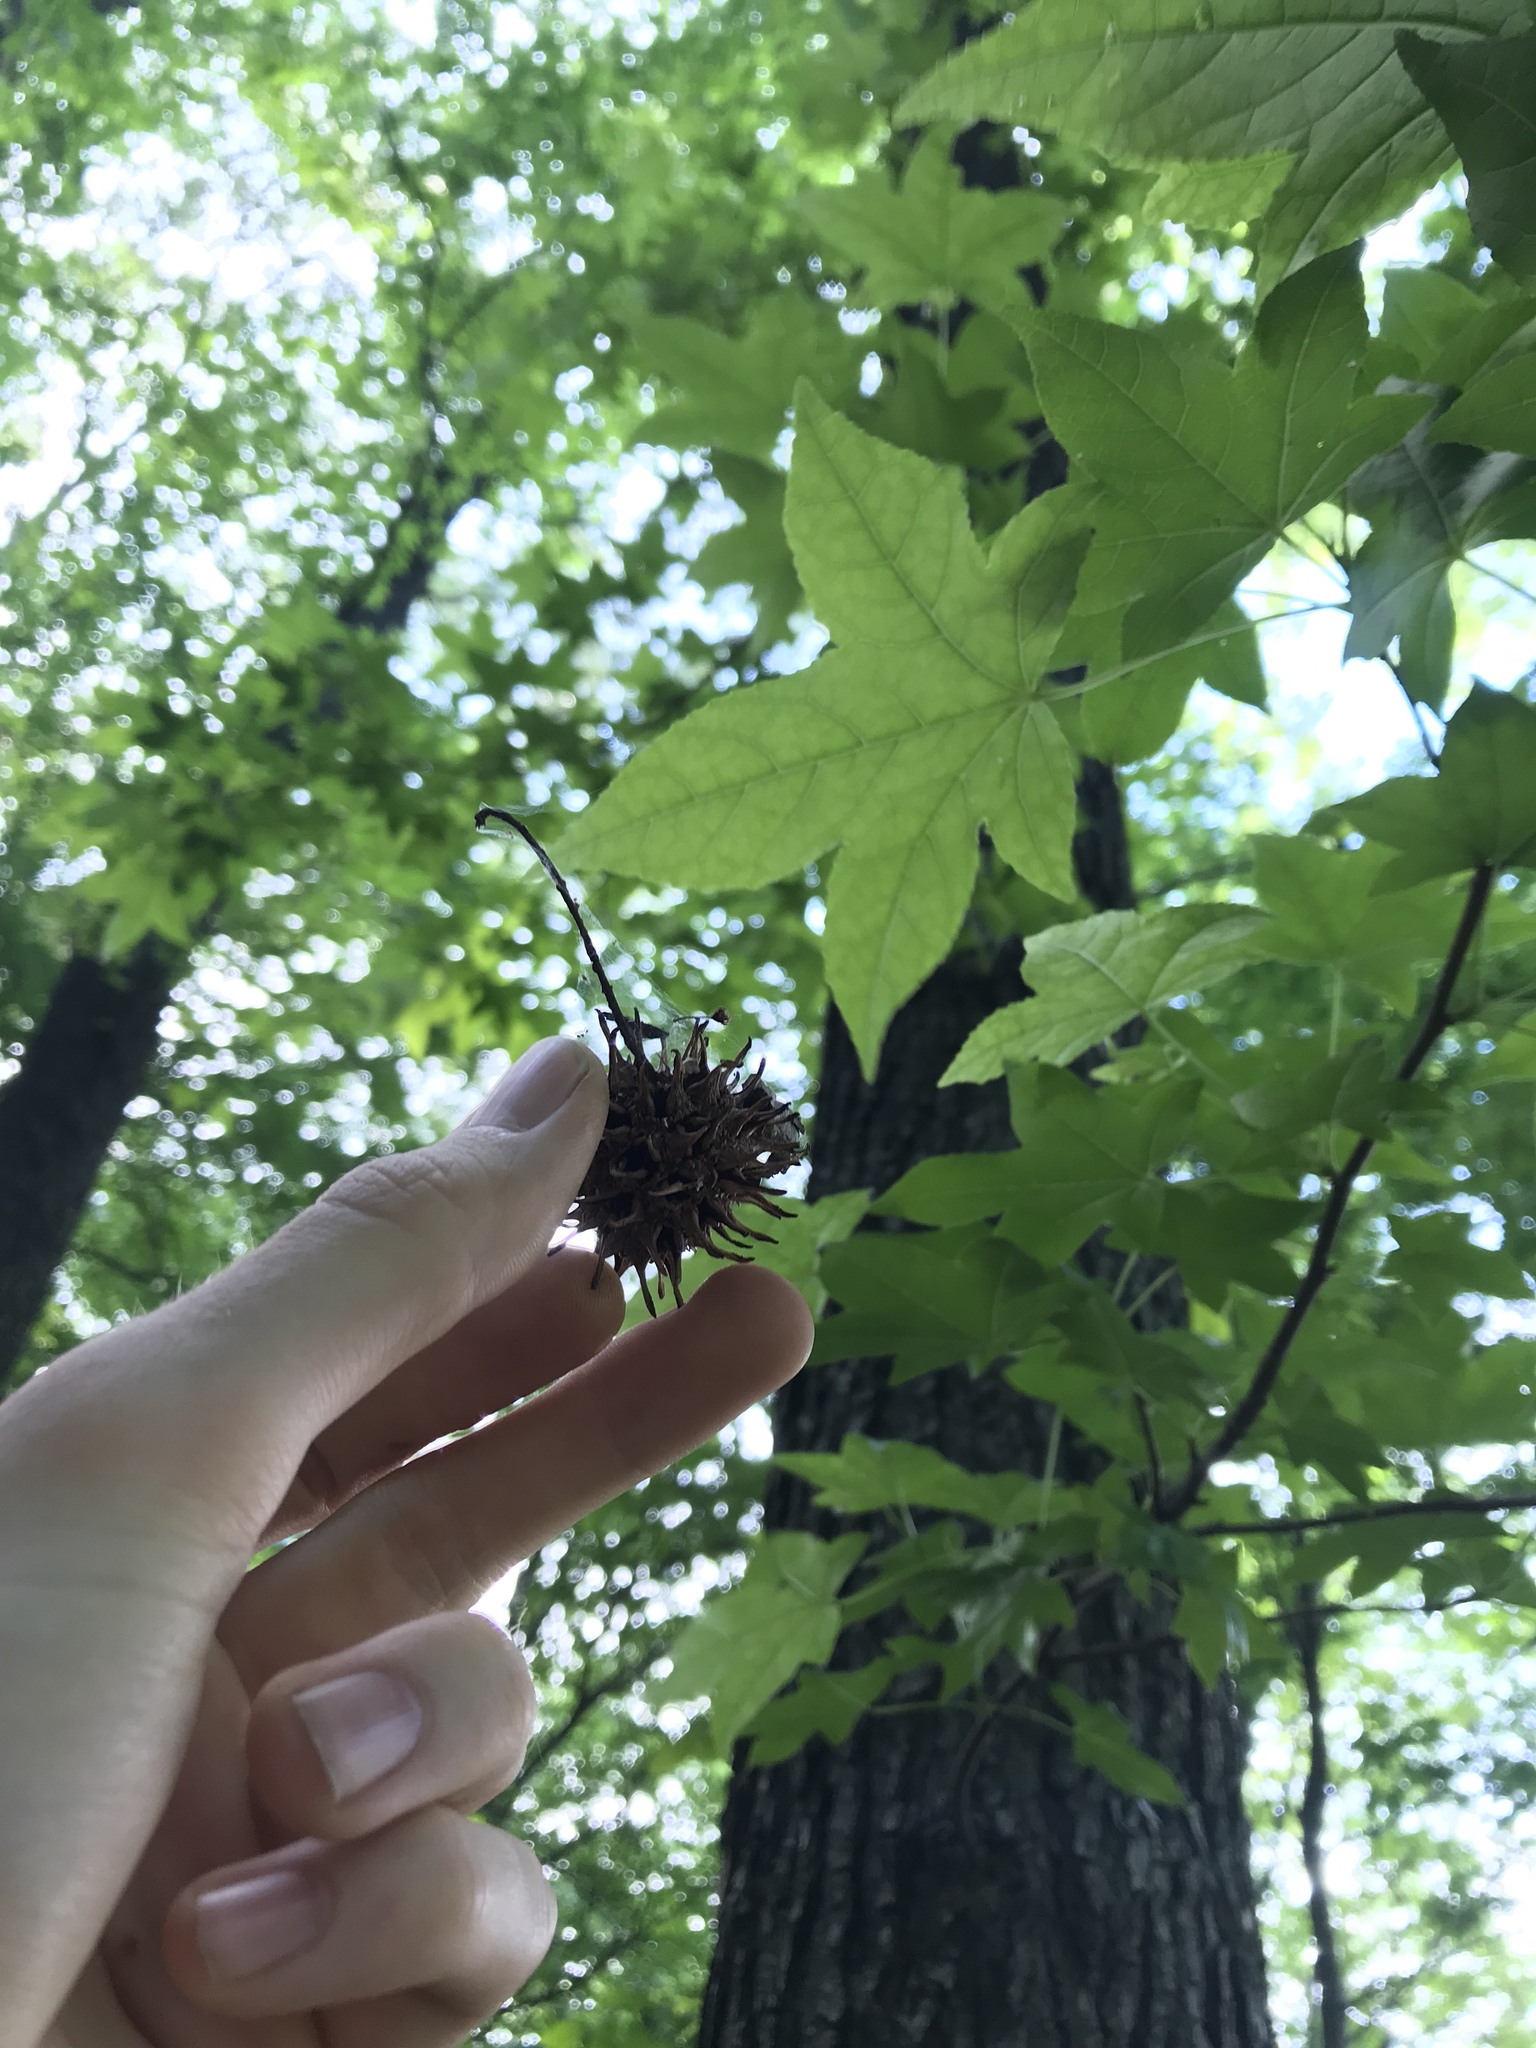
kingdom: Plantae
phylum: Tracheophyta
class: Magnoliopsida
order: Saxifragales
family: Altingiaceae
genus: Liquidambar
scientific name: Liquidambar styraciflua
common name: Sweet gum
